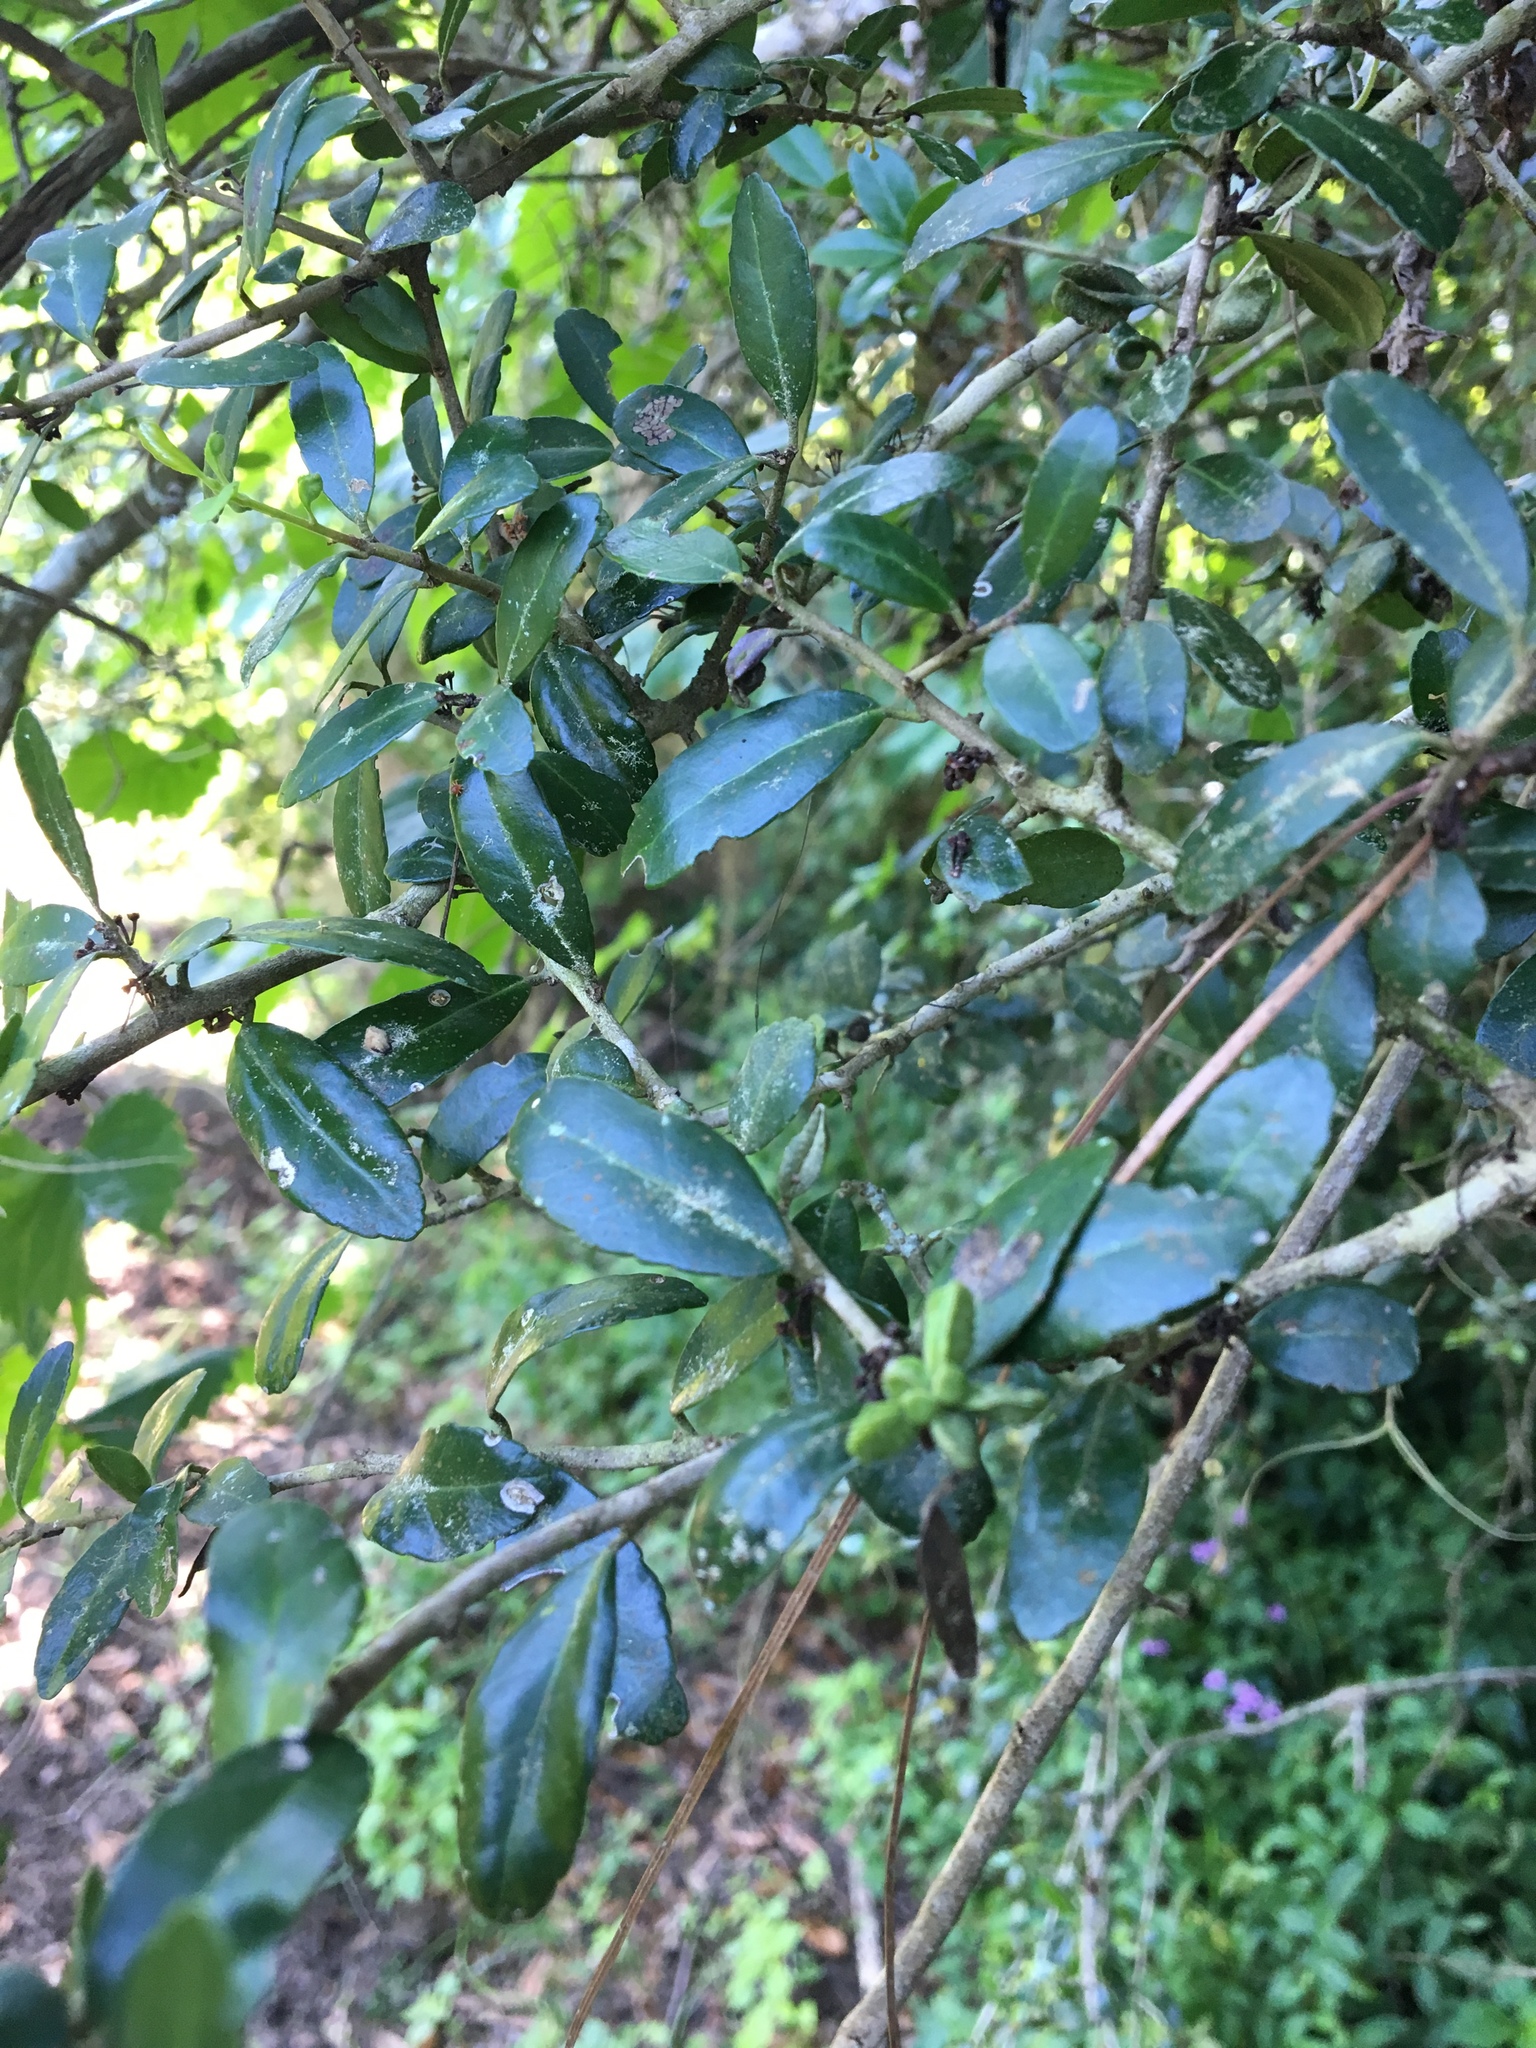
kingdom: Plantae
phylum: Tracheophyta
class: Magnoliopsida
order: Aquifoliales
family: Aquifoliaceae
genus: Ilex
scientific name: Ilex vomitoria
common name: Yaupon holly
